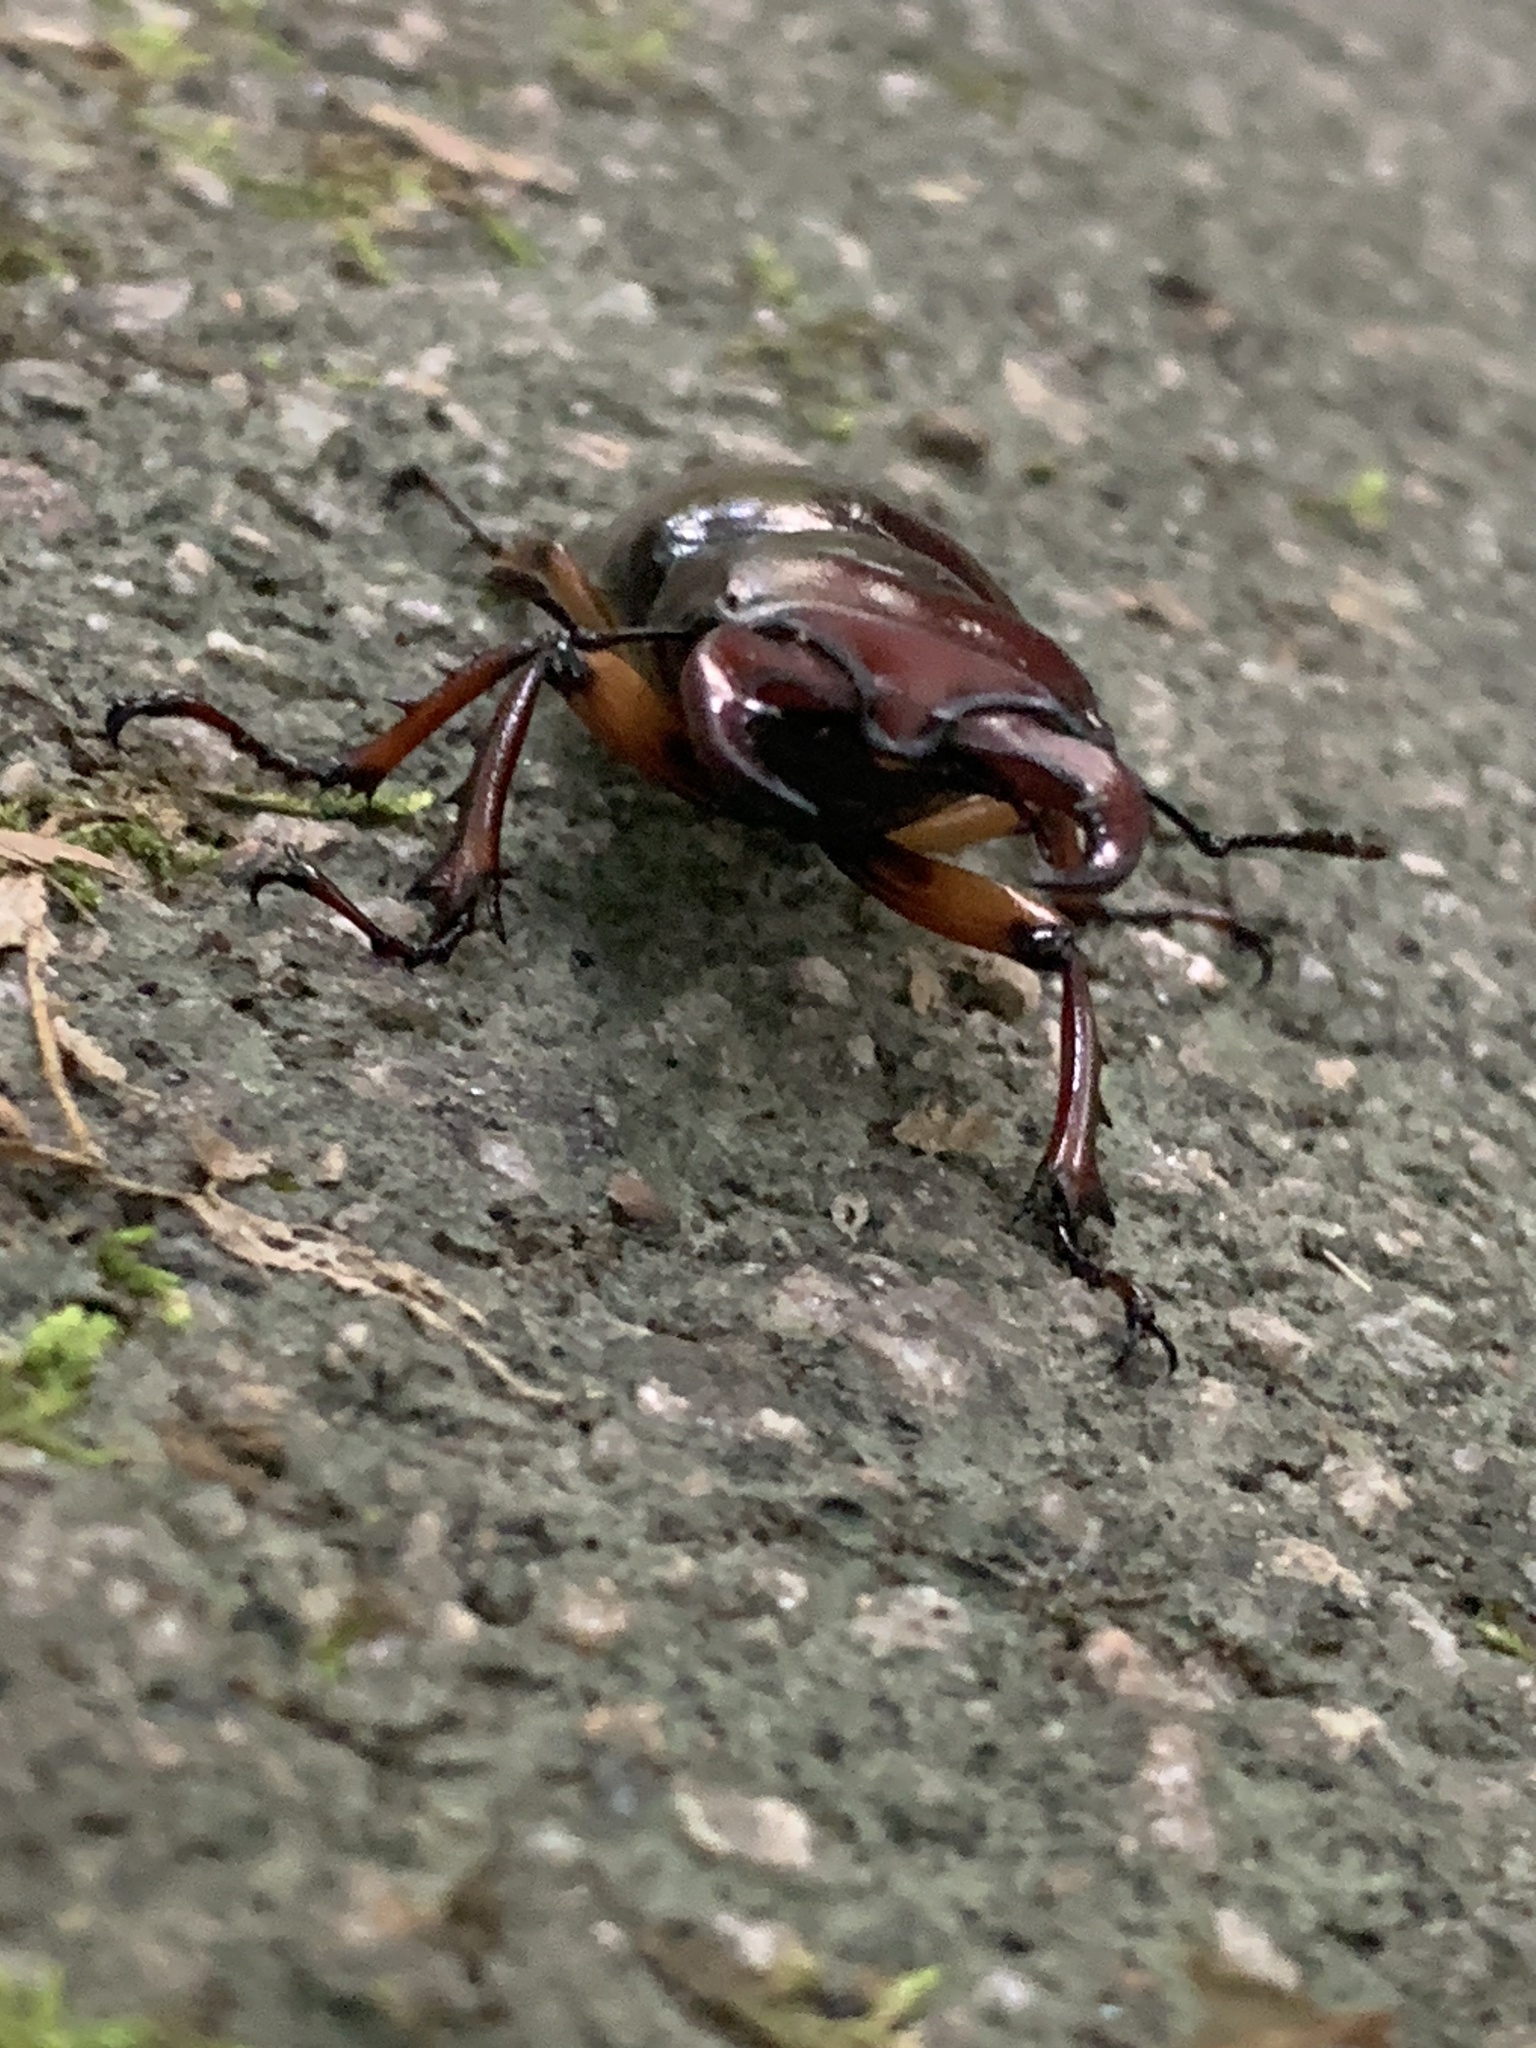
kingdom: Animalia
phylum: Arthropoda
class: Insecta
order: Coleoptera
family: Lucanidae
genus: Lucanus
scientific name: Lucanus capreolus
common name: Stag beetle
